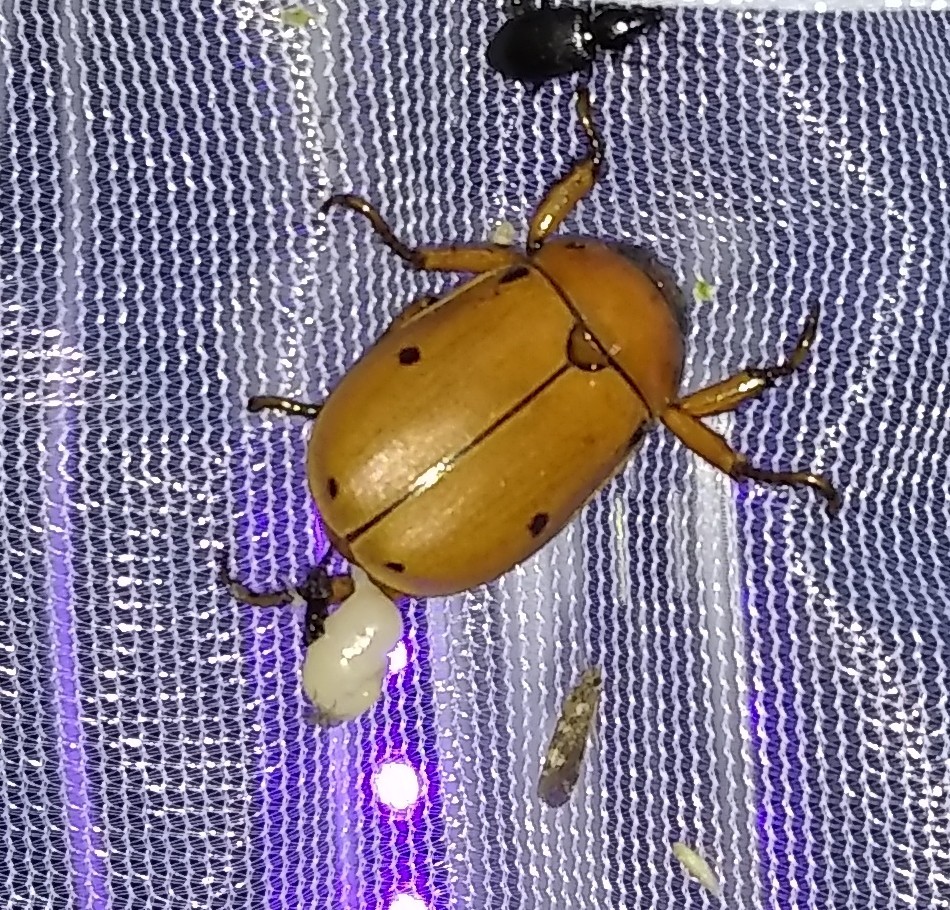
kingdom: Animalia
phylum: Arthropoda
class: Insecta
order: Coleoptera
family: Scarabaeidae
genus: Pelidnota
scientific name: Pelidnota punctata
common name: Grapevine beetle
